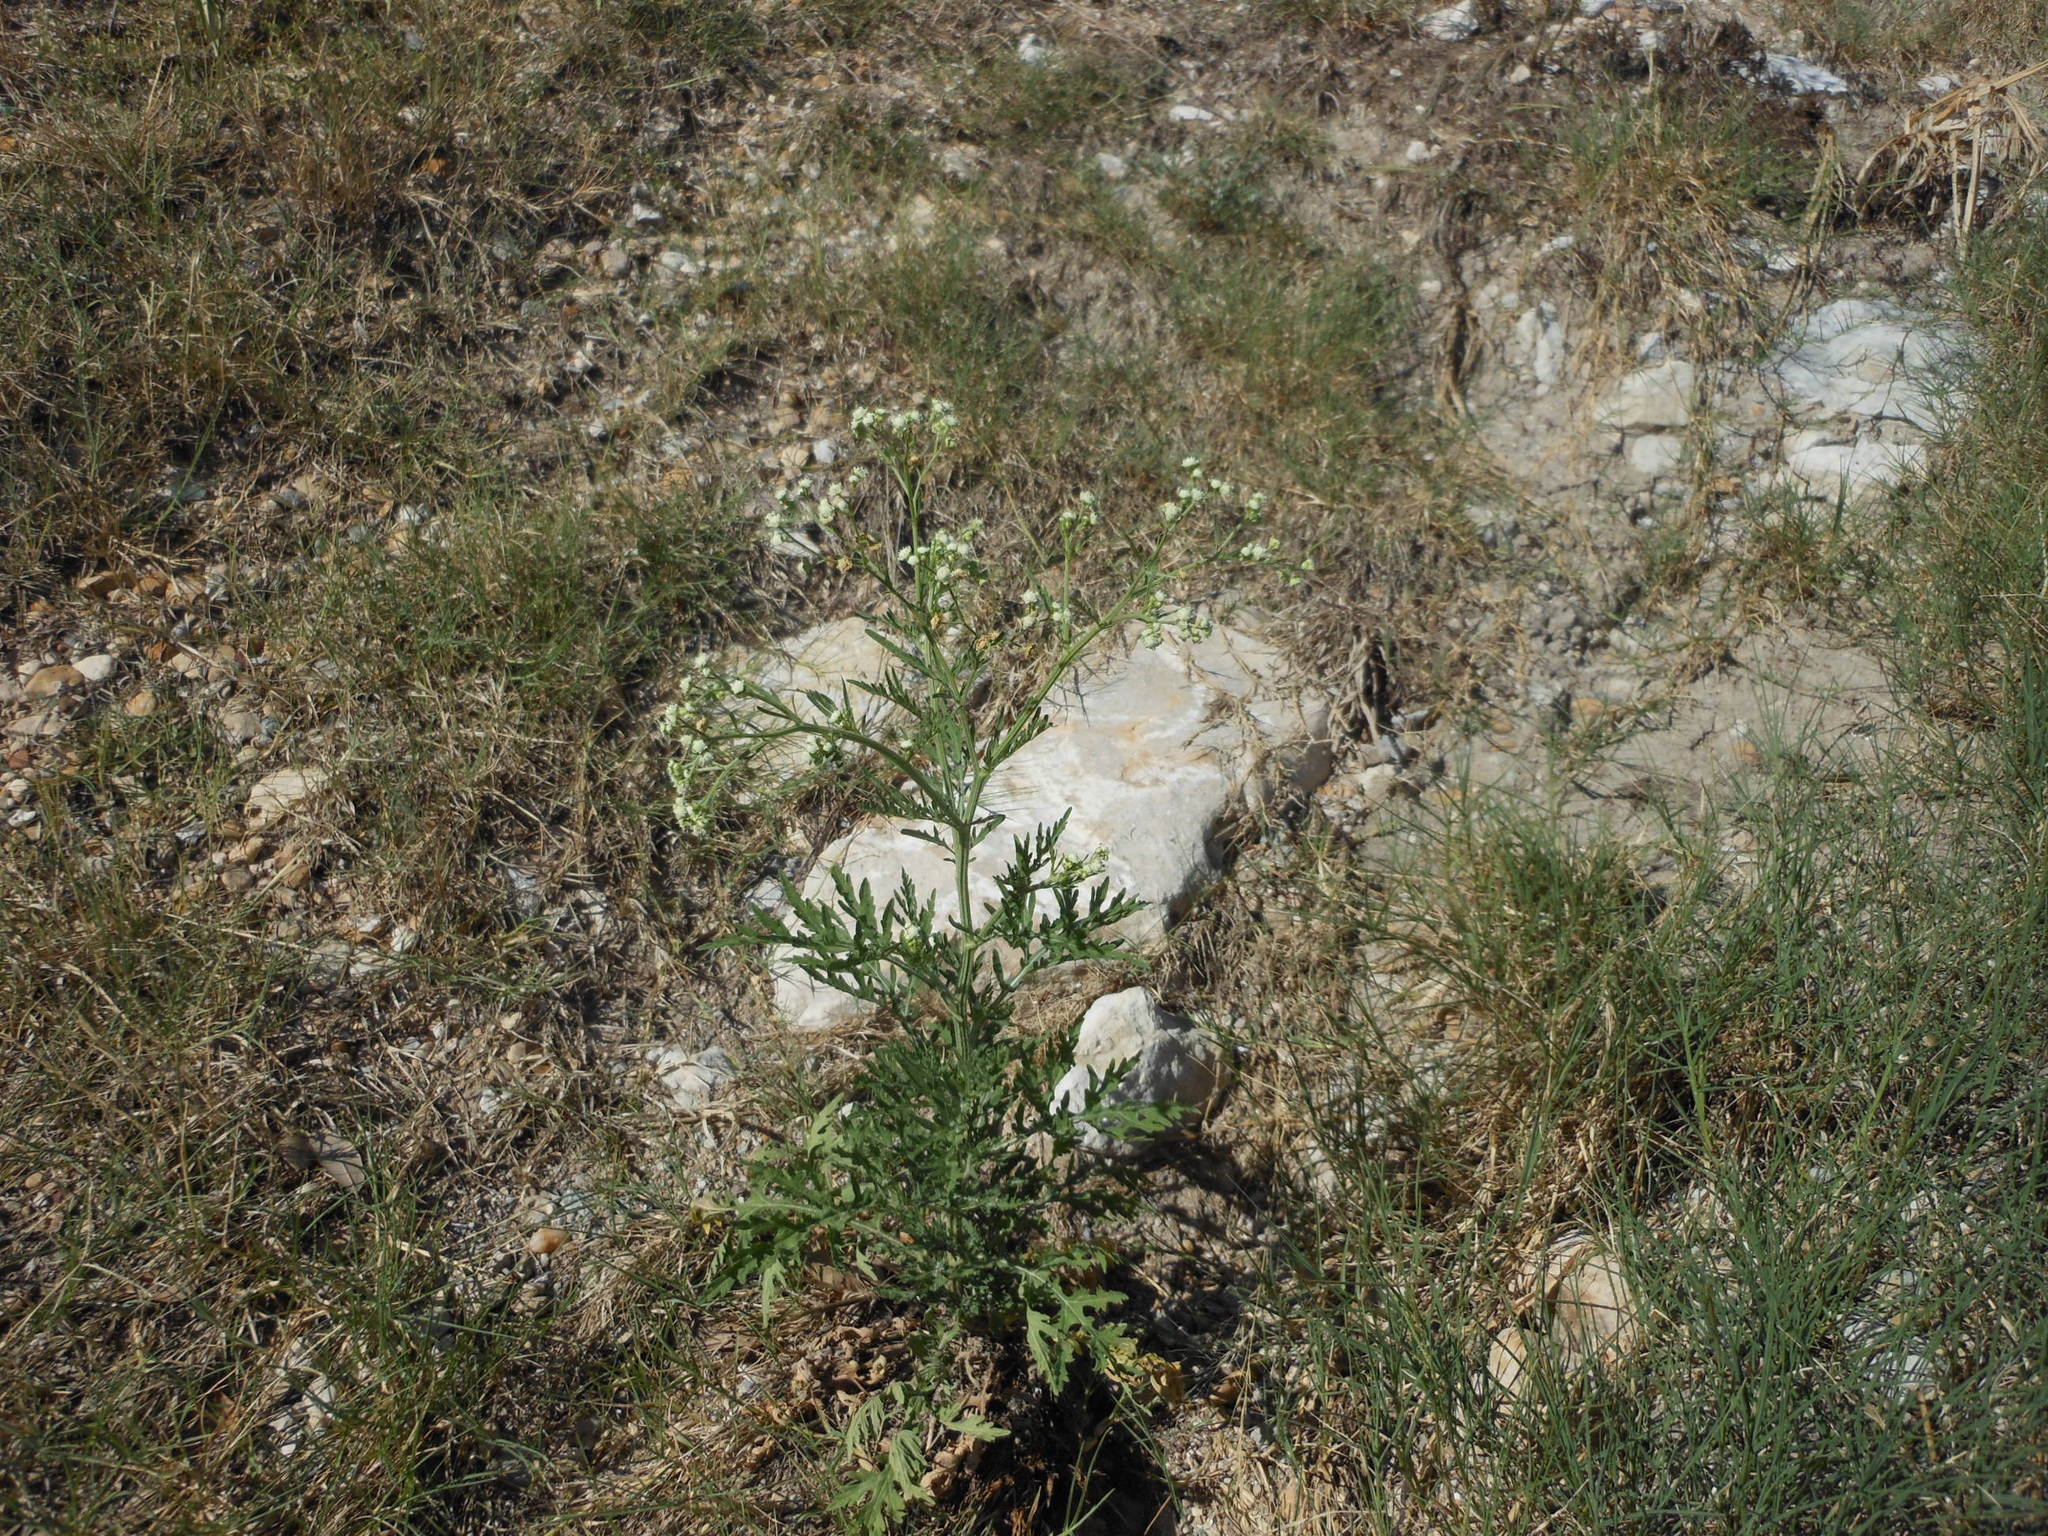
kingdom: Plantae
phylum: Tracheophyta
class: Magnoliopsida
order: Asterales
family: Asteraceae
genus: Parthenium
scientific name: Parthenium hysterophorus
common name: Santa maria feverfew
